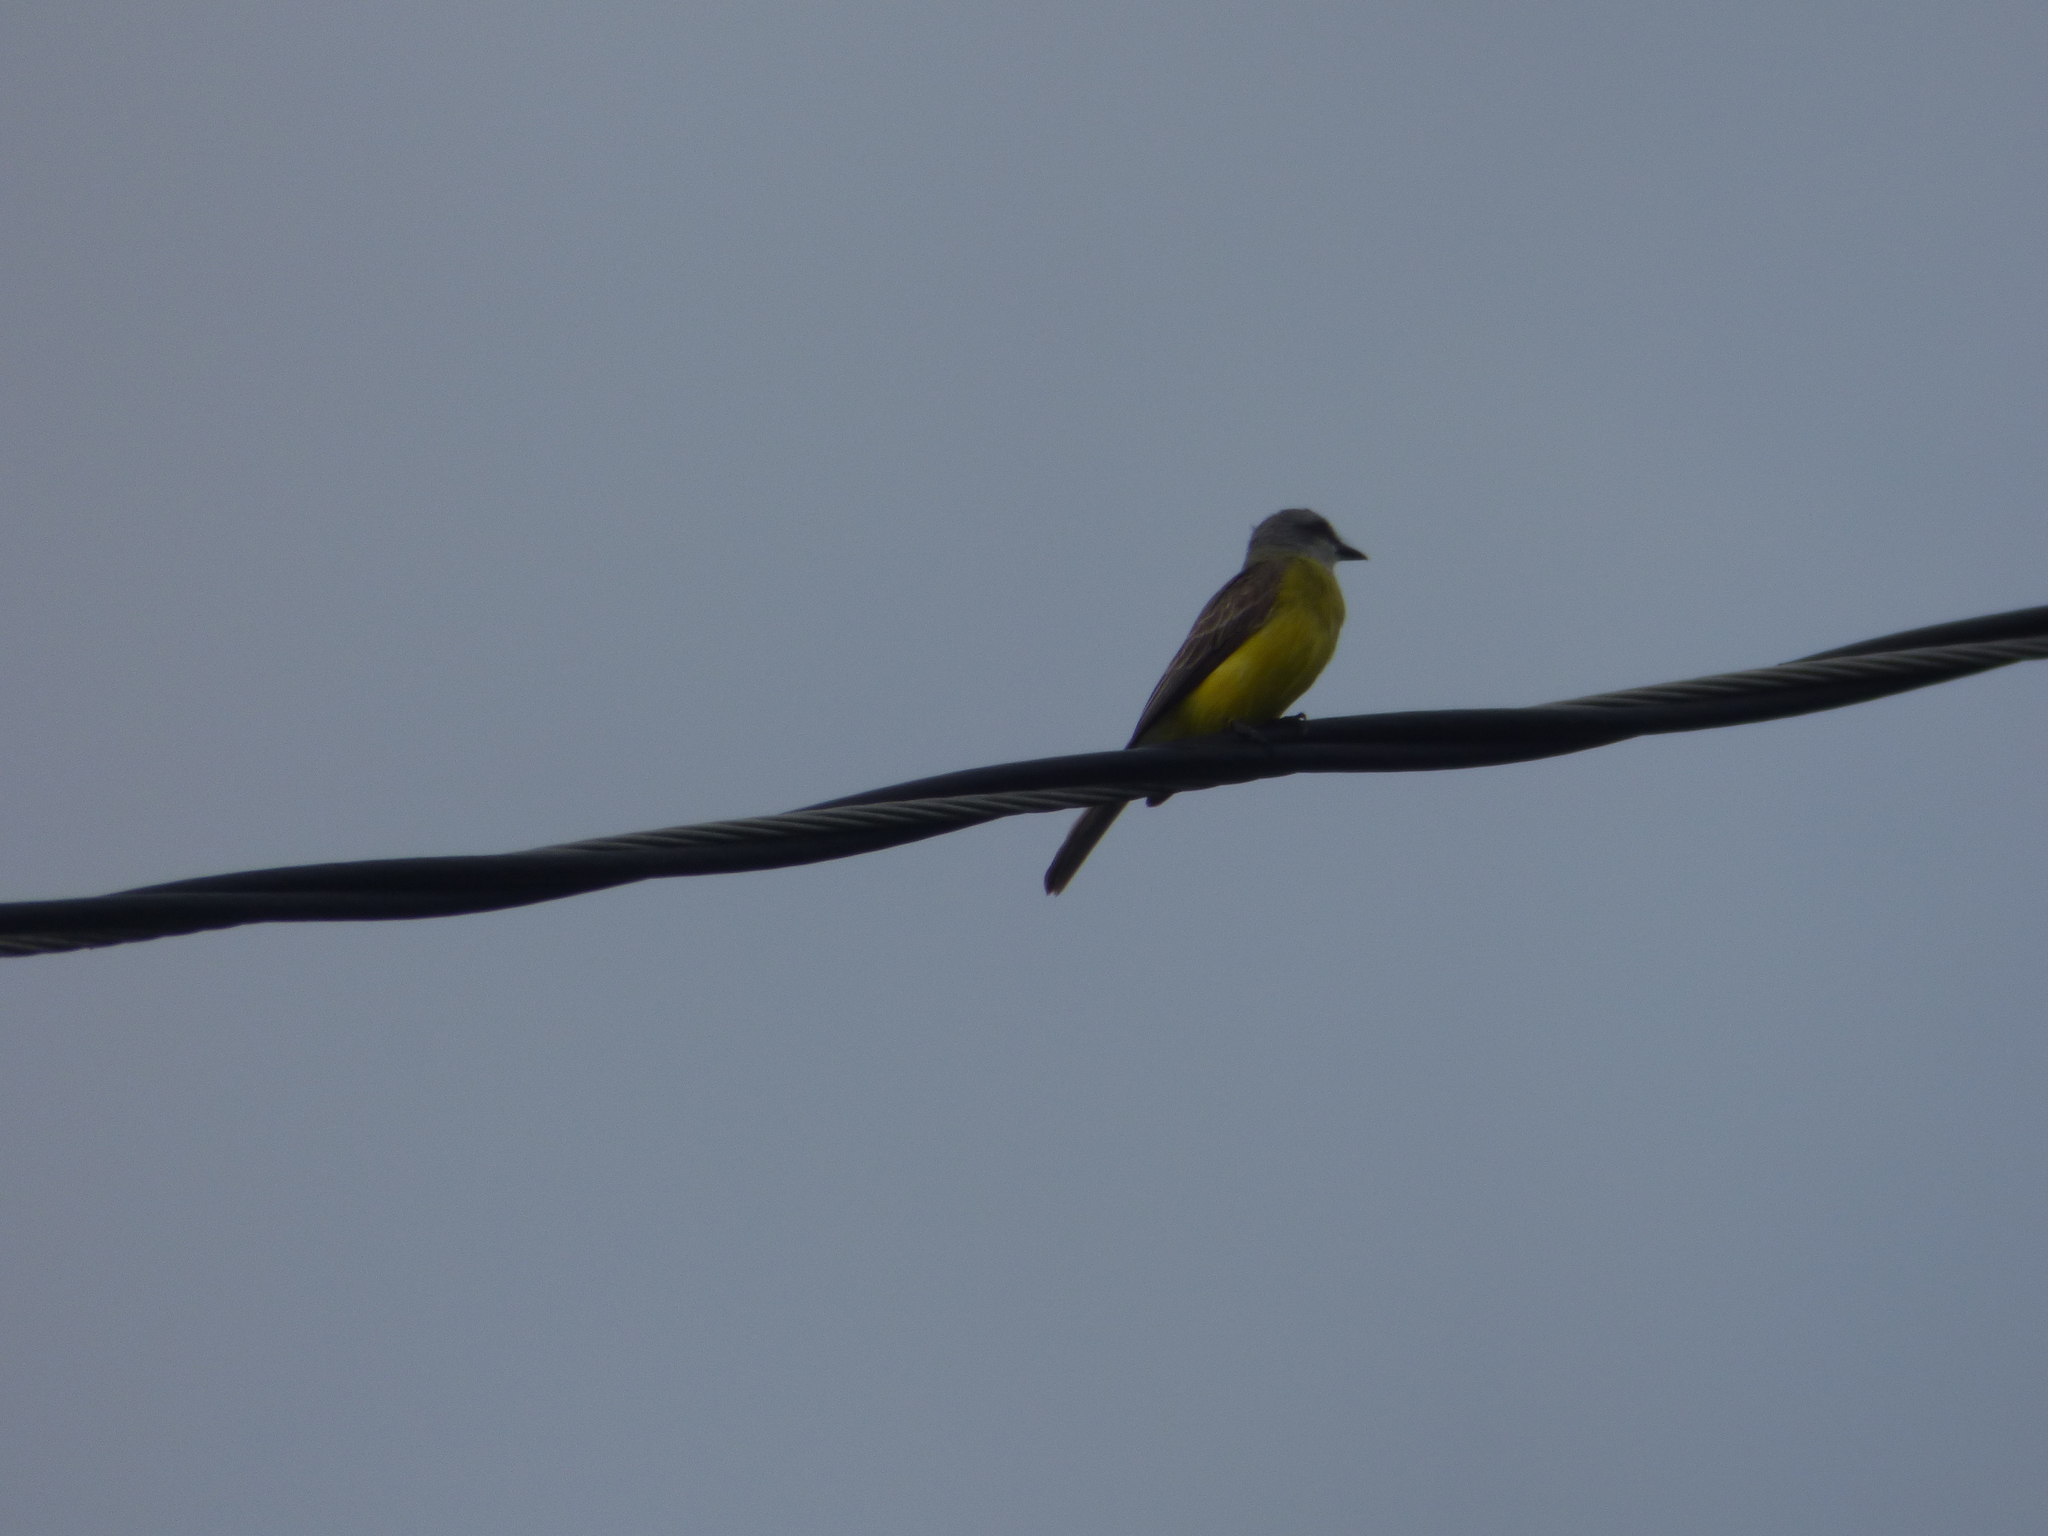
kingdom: Animalia
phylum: Chordata
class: Aves
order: Passeriformes
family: Tyrannidae
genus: Tyrannus
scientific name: Tyrannus verticalis
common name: Western kingbird
